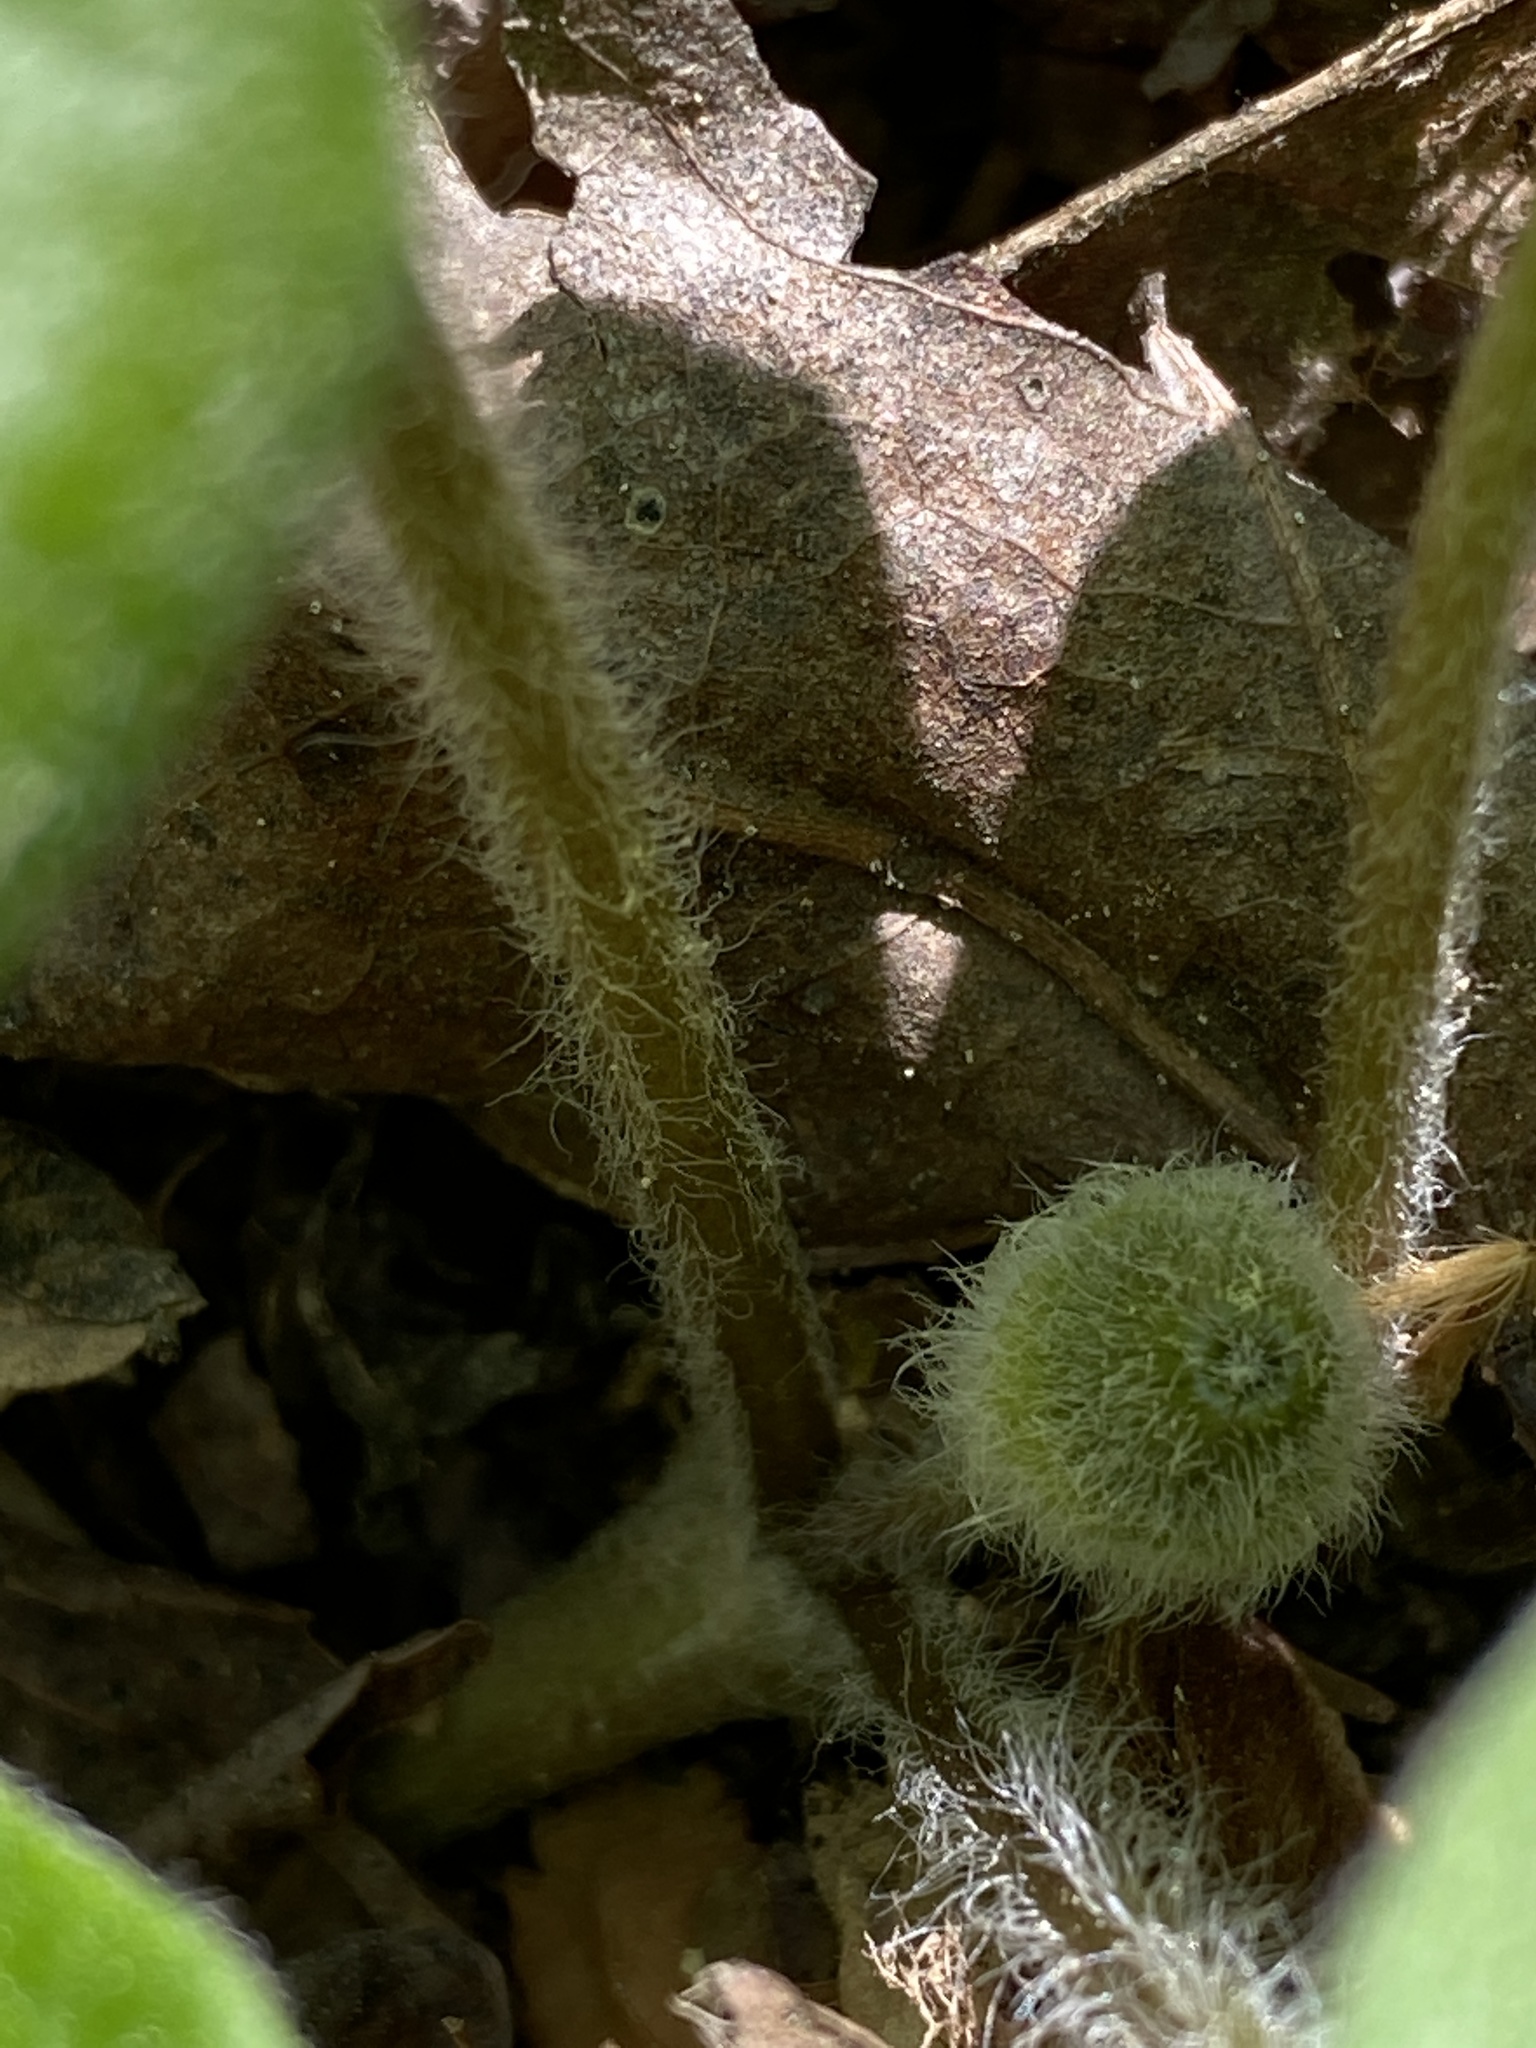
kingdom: Plantae
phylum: Tracheophyta
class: Magnoliopsida
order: Piperales
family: Aristolochiaceae
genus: Asarum
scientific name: Asarum canadense
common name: Wild ginger
